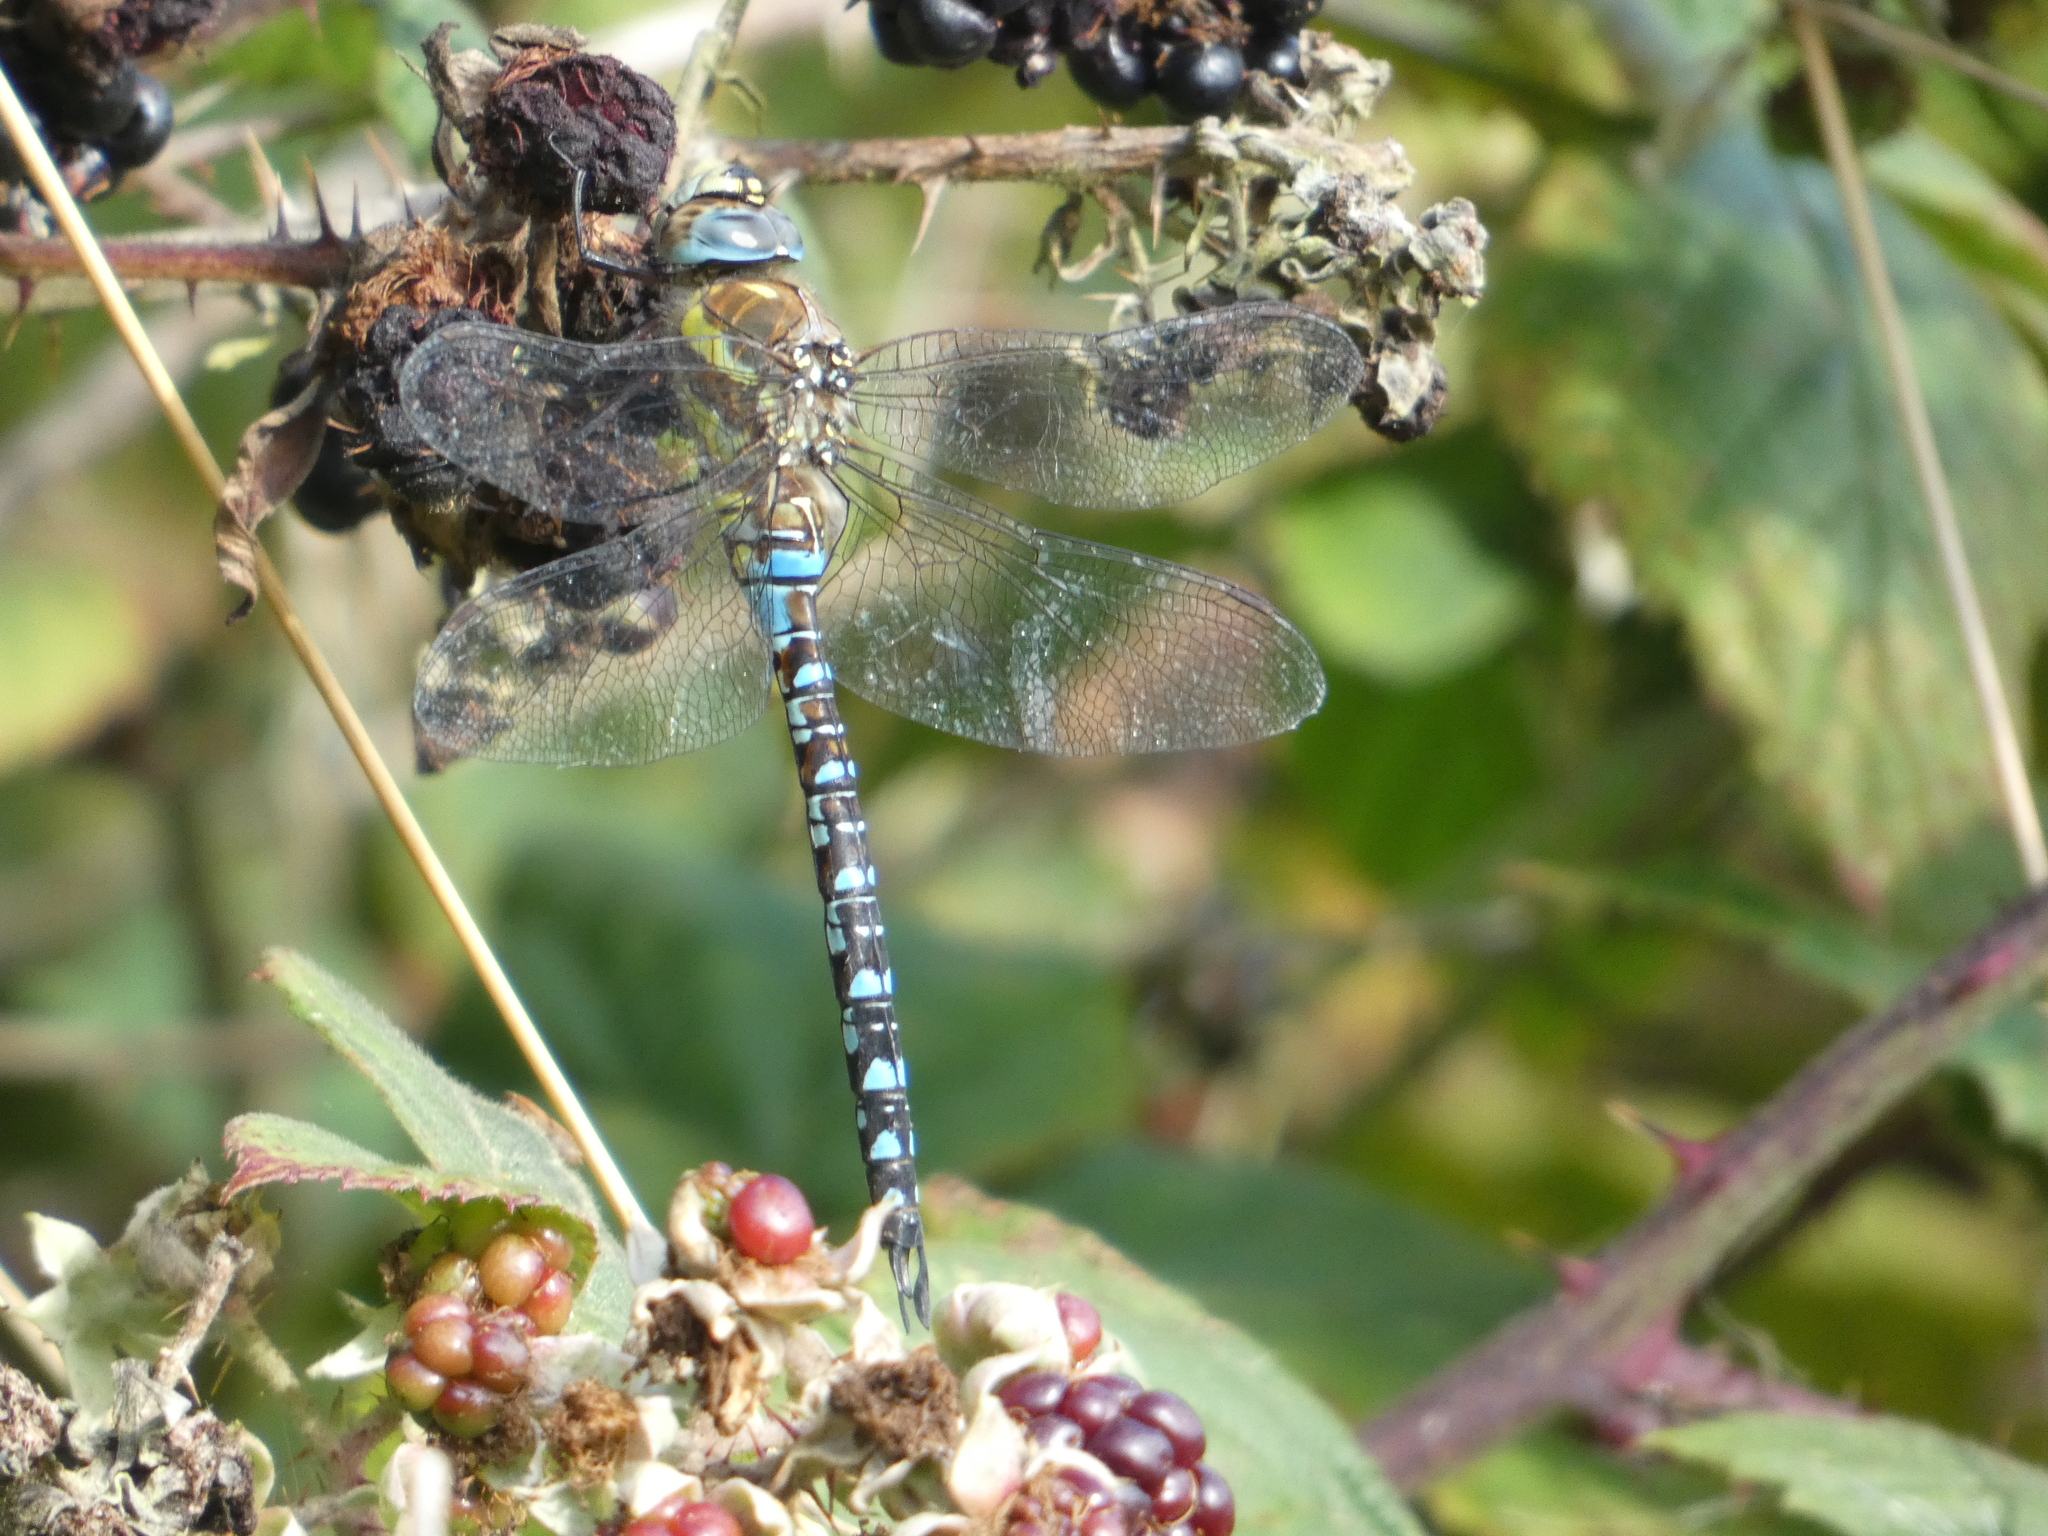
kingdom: Animalia
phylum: Arthropoda
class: Insecta
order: Odonata
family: Aeshnidae
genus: Aeshna
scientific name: Aeshna mixta
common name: Migrant hawker
